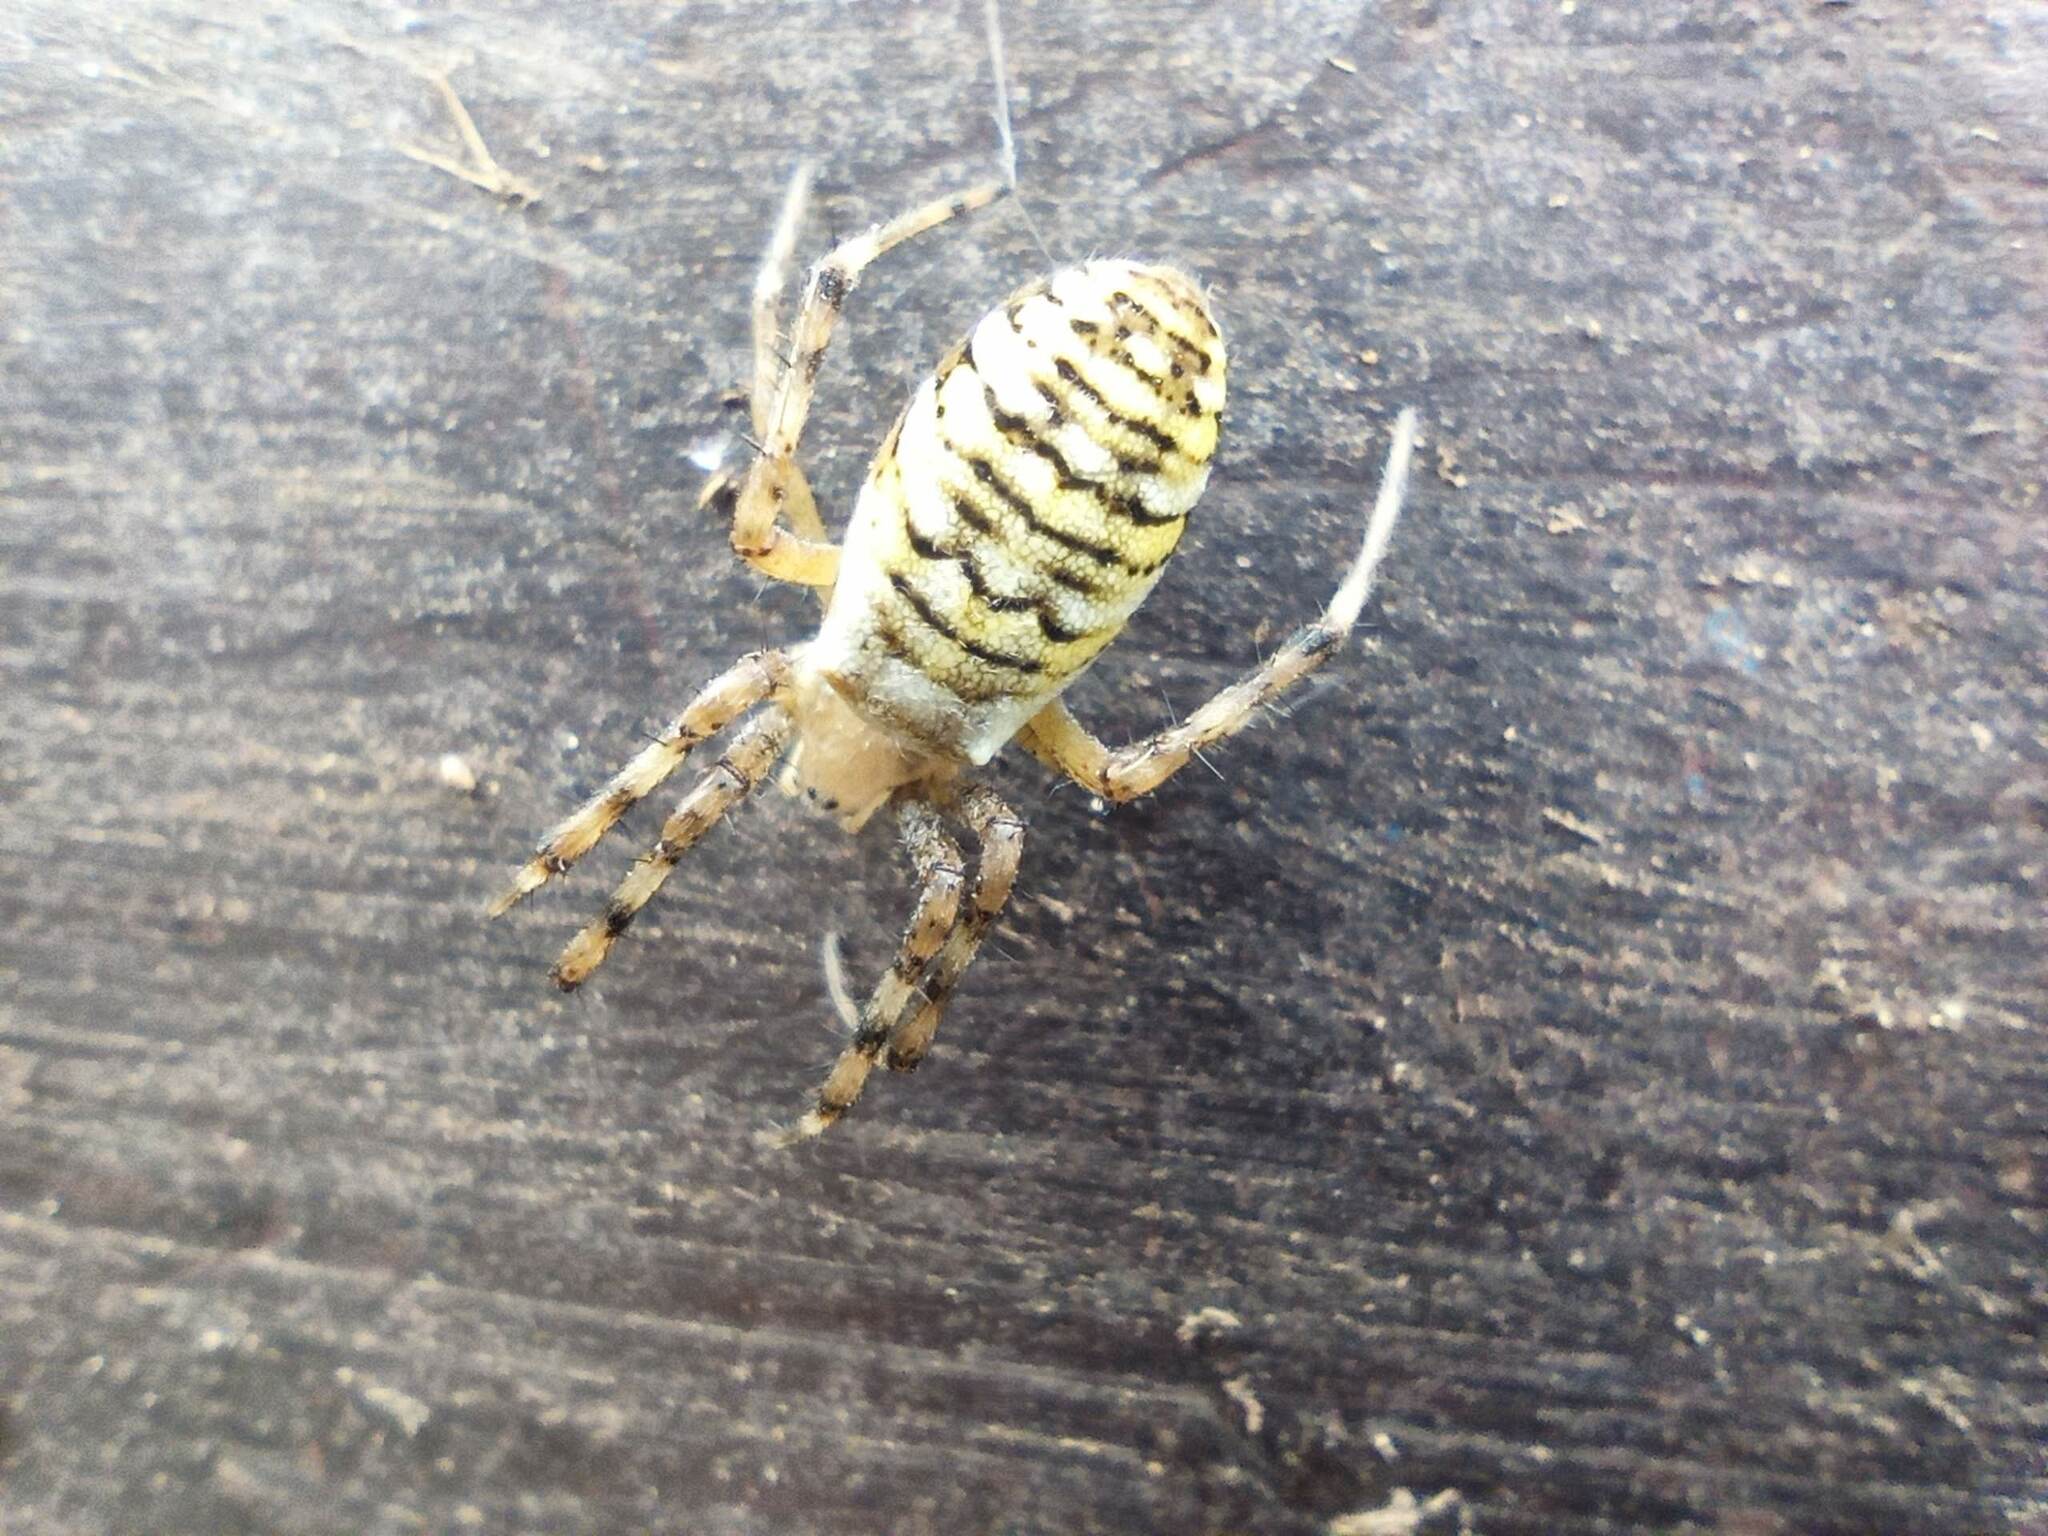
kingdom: Animalia
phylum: Arthropoda
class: Arachnida
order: Araneae
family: Araneidae
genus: Argiope
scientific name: Argiope bruennichi
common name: Wasp spider
